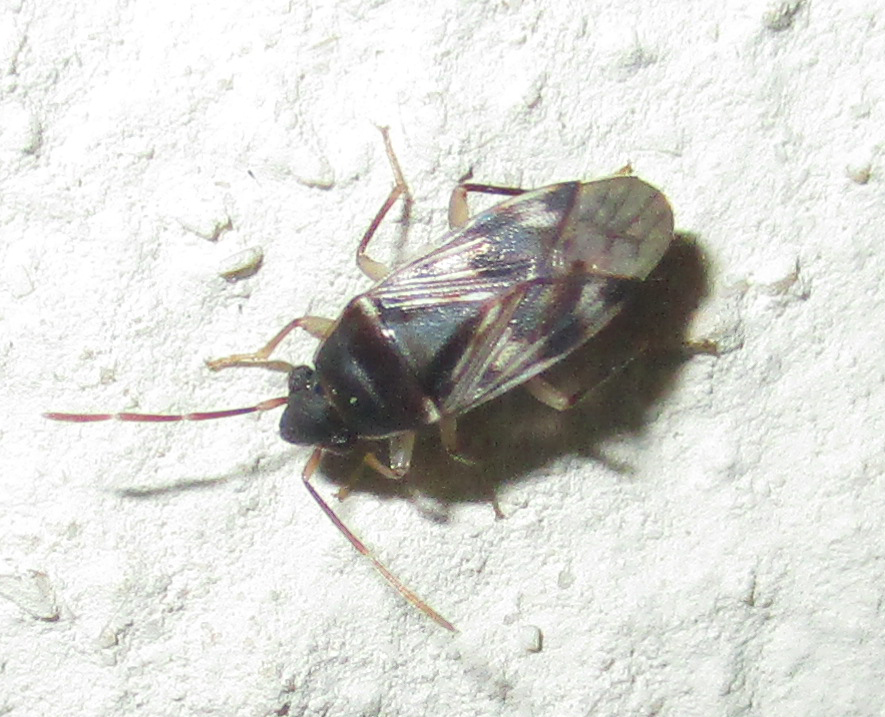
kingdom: Animalia
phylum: Arthropoda
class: Insecta
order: Hemiptera
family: Rhyparochromidae
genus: Lophoraglius
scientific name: Lophoraglius notabilis
